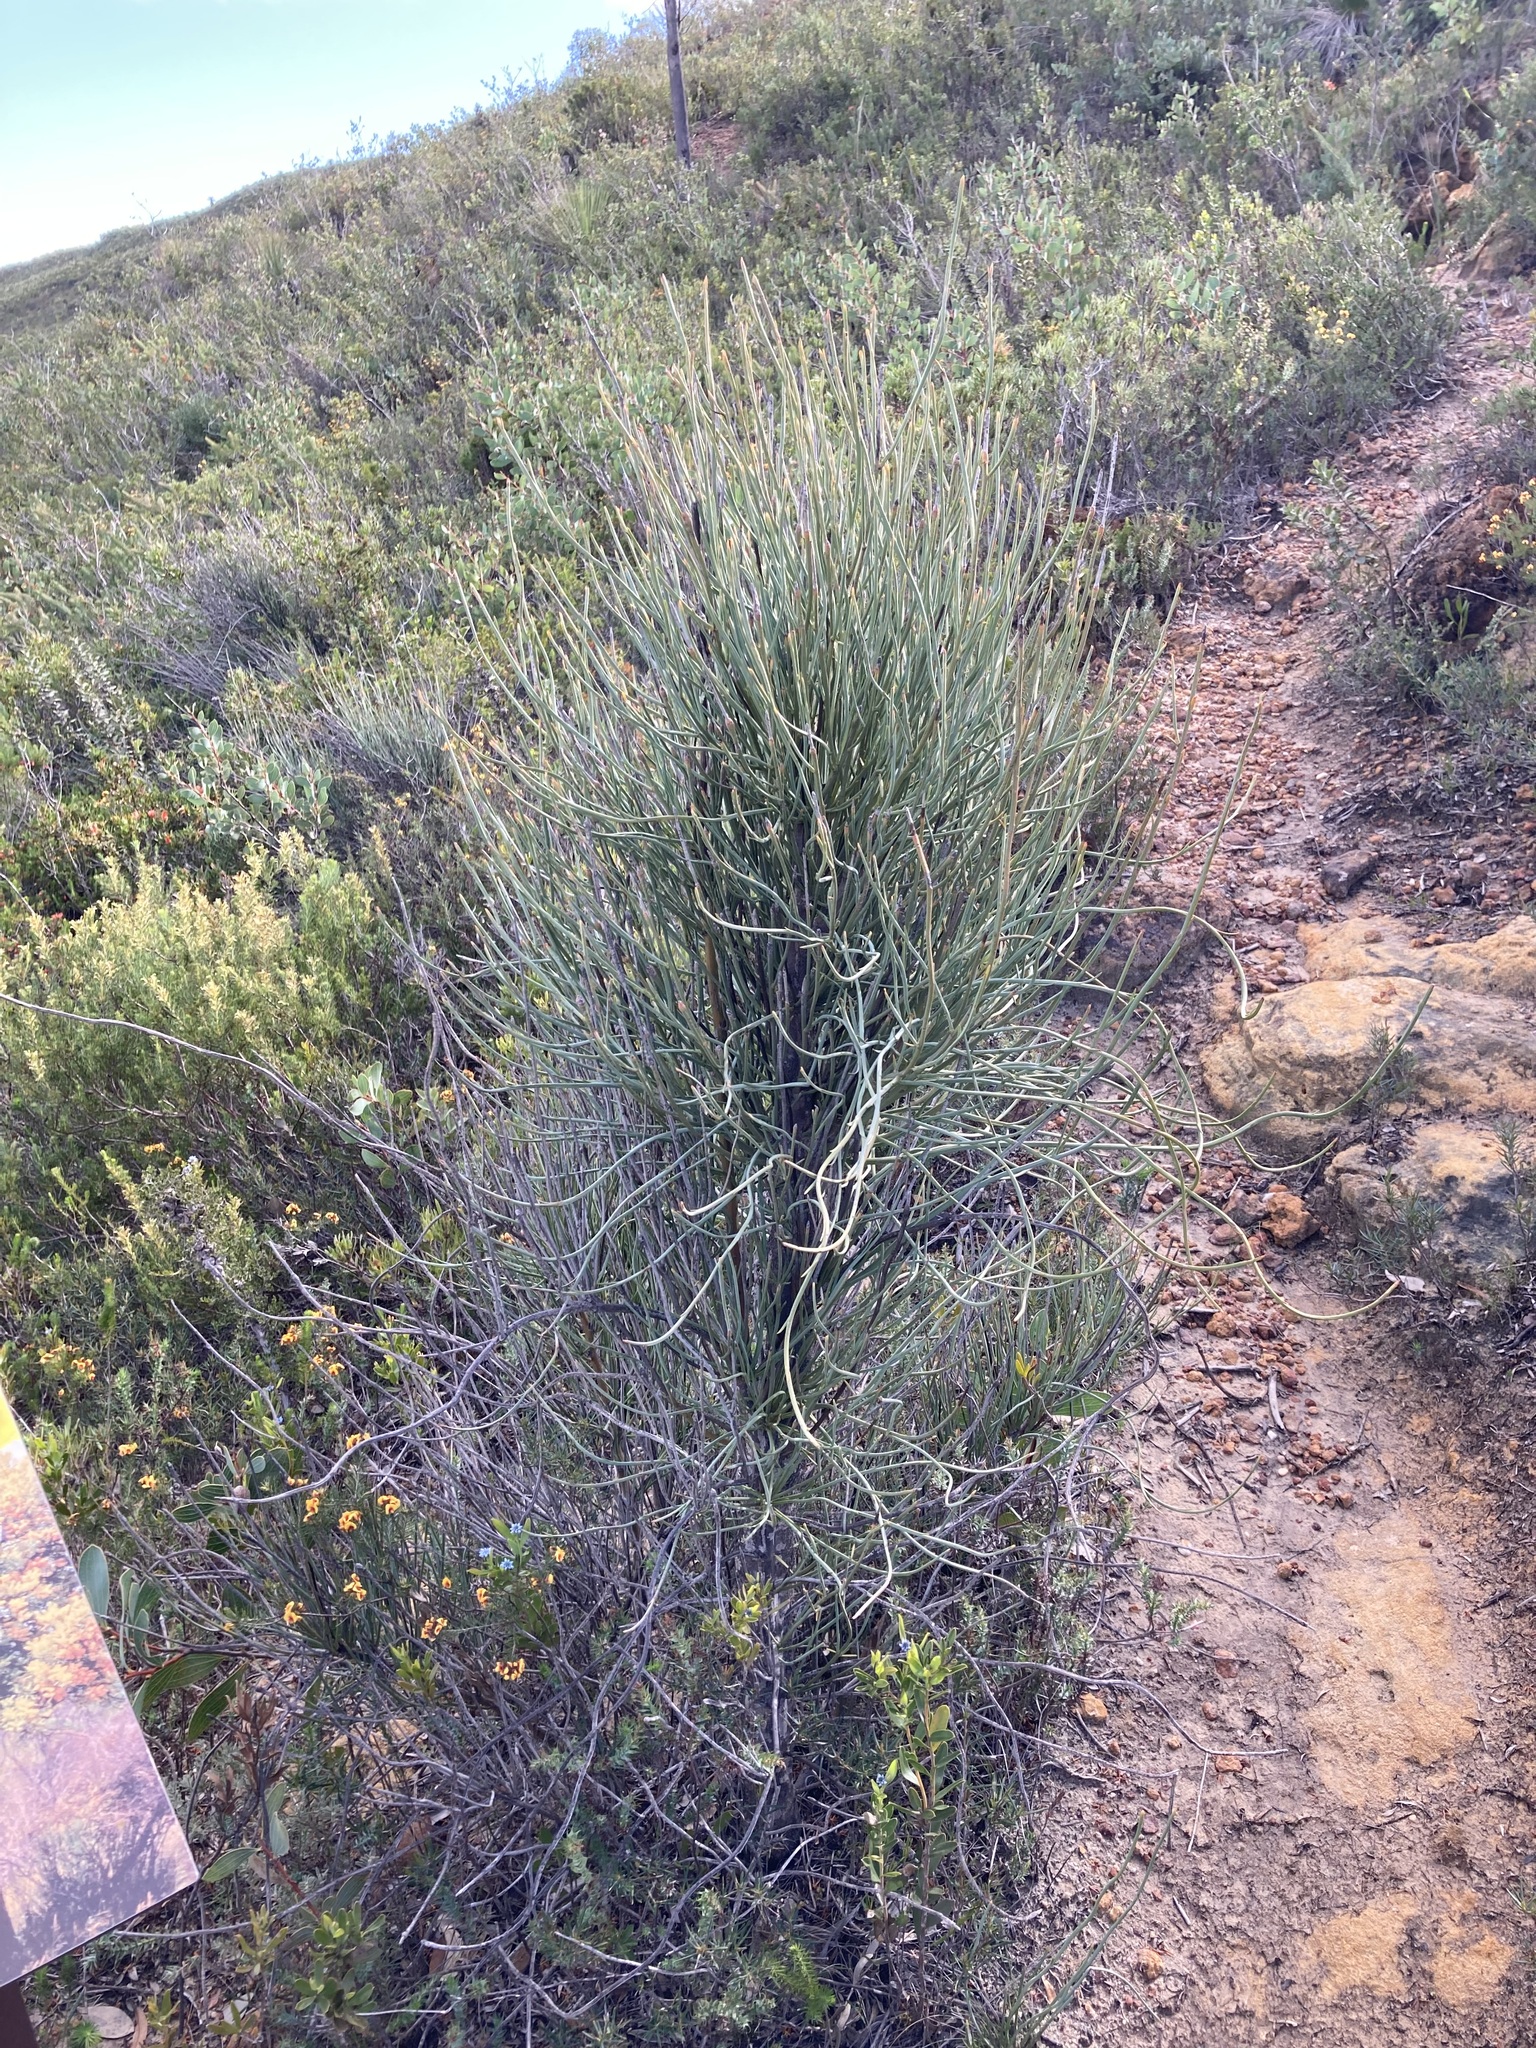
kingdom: Plantae
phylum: Tracheophyta
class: Magnoliopsida
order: Santalales
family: Loranthaceae
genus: Nuytsia
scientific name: Nuytsia floribunda
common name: Western australian christmastree
